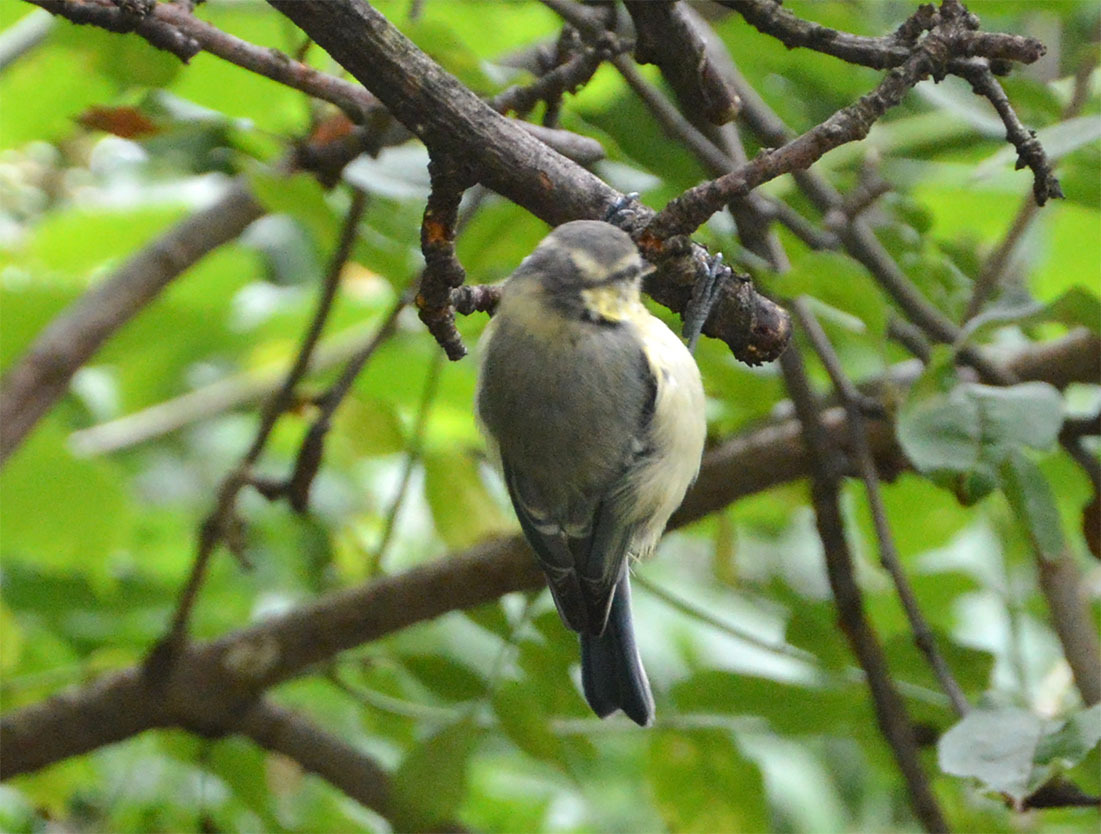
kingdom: Animalia
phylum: Chordata
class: Aves
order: Passeriformes
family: Paridae
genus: Cyanistes
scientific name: Cyanistes caeruleus
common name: Eurasian blue tit
